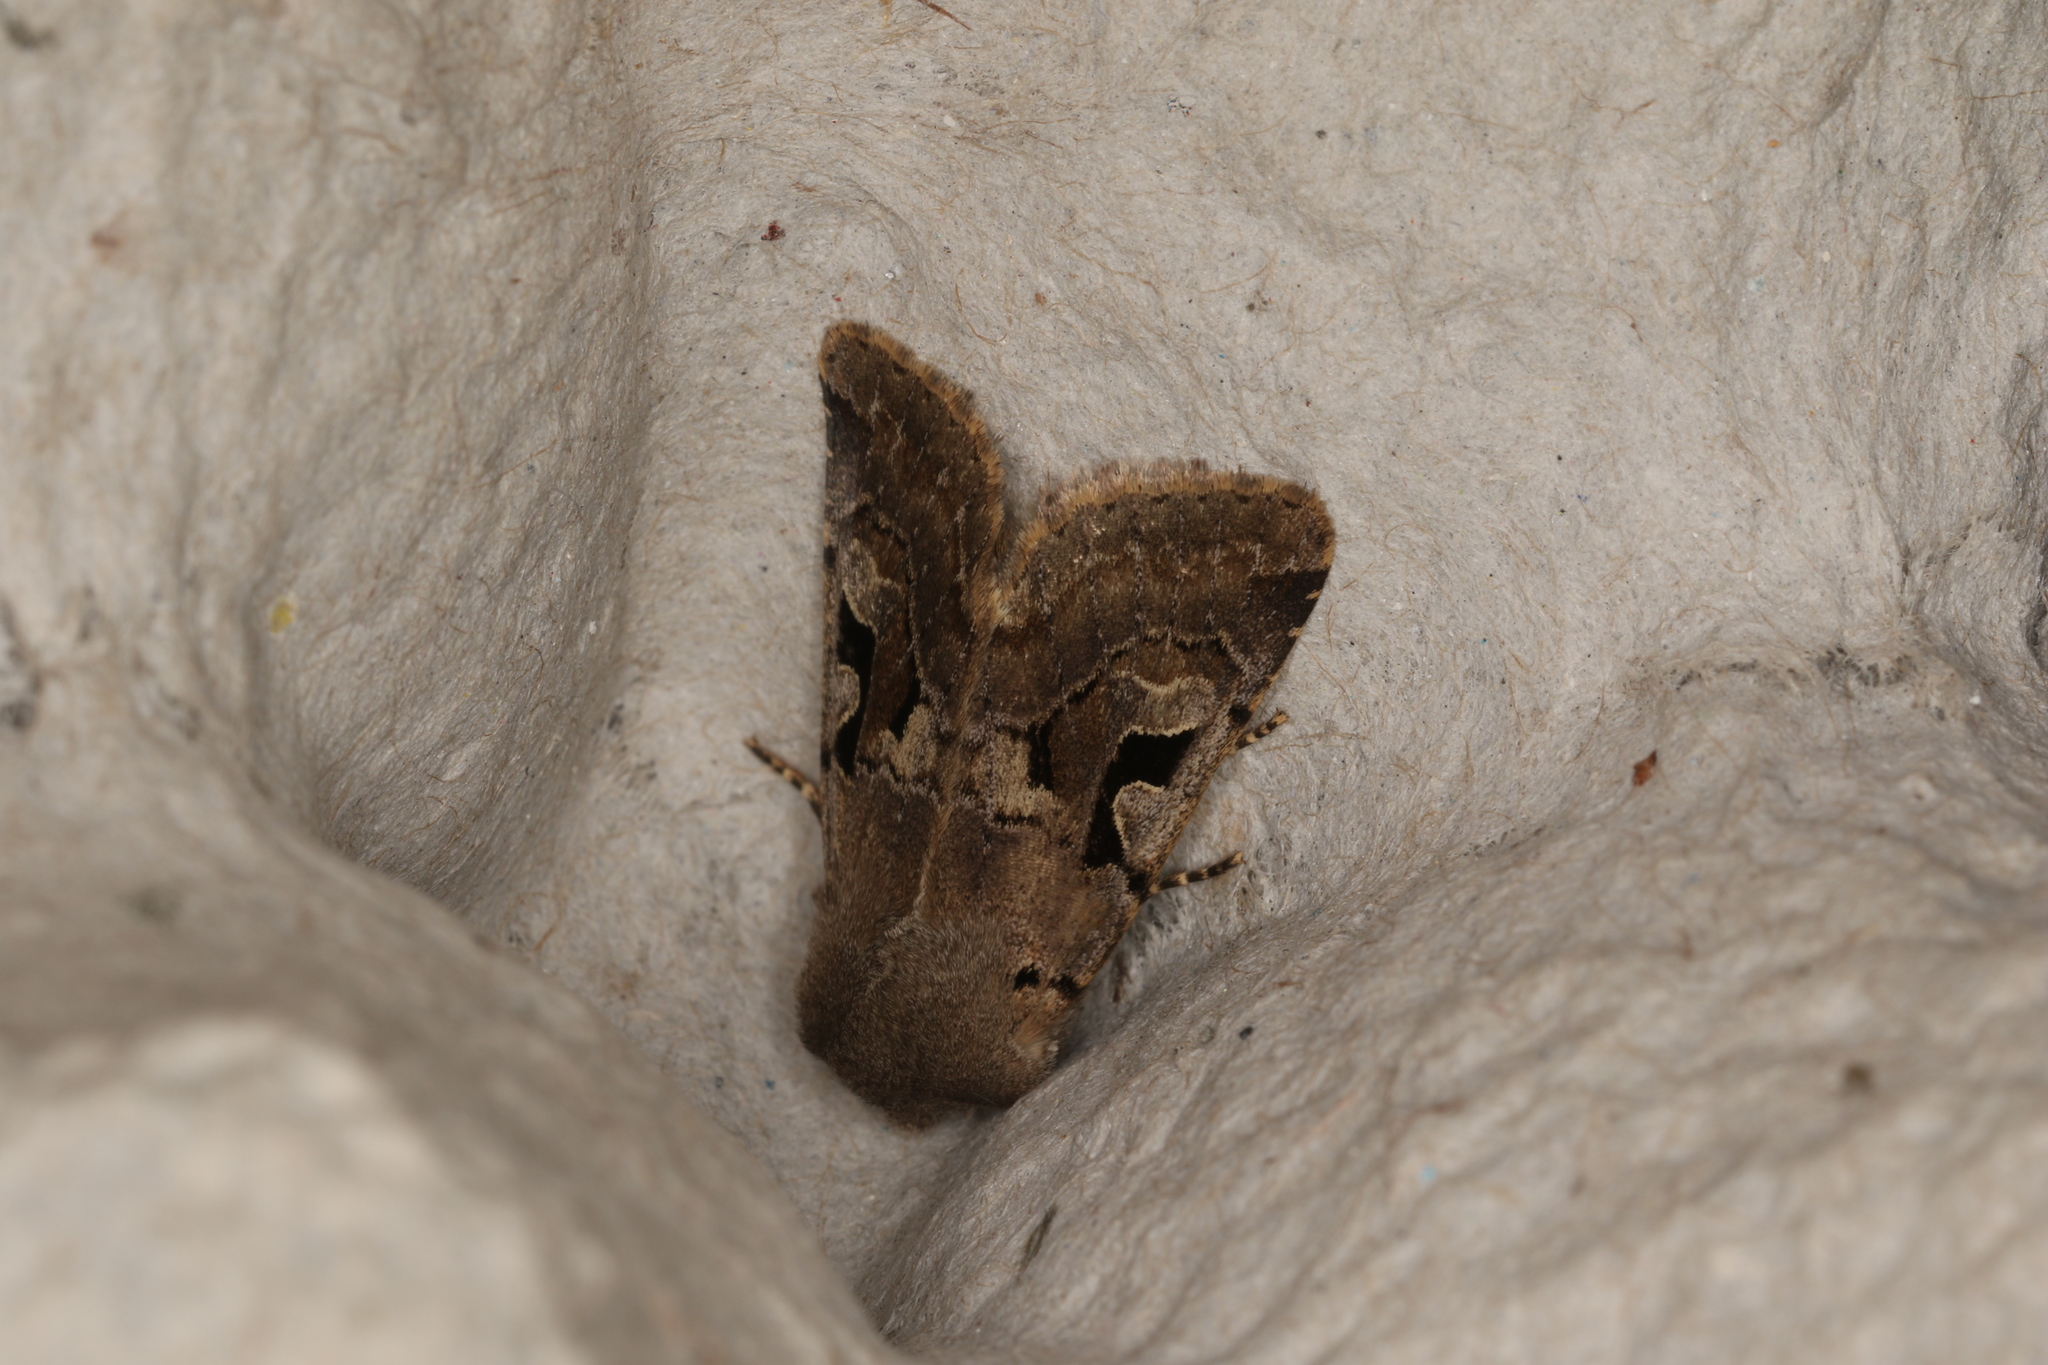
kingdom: Animalia
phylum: Arthropoda
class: Insecta
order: Lepidoptera
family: Noctuidae
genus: Orthosia
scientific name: Orthosia gothica
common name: Hebrew character
